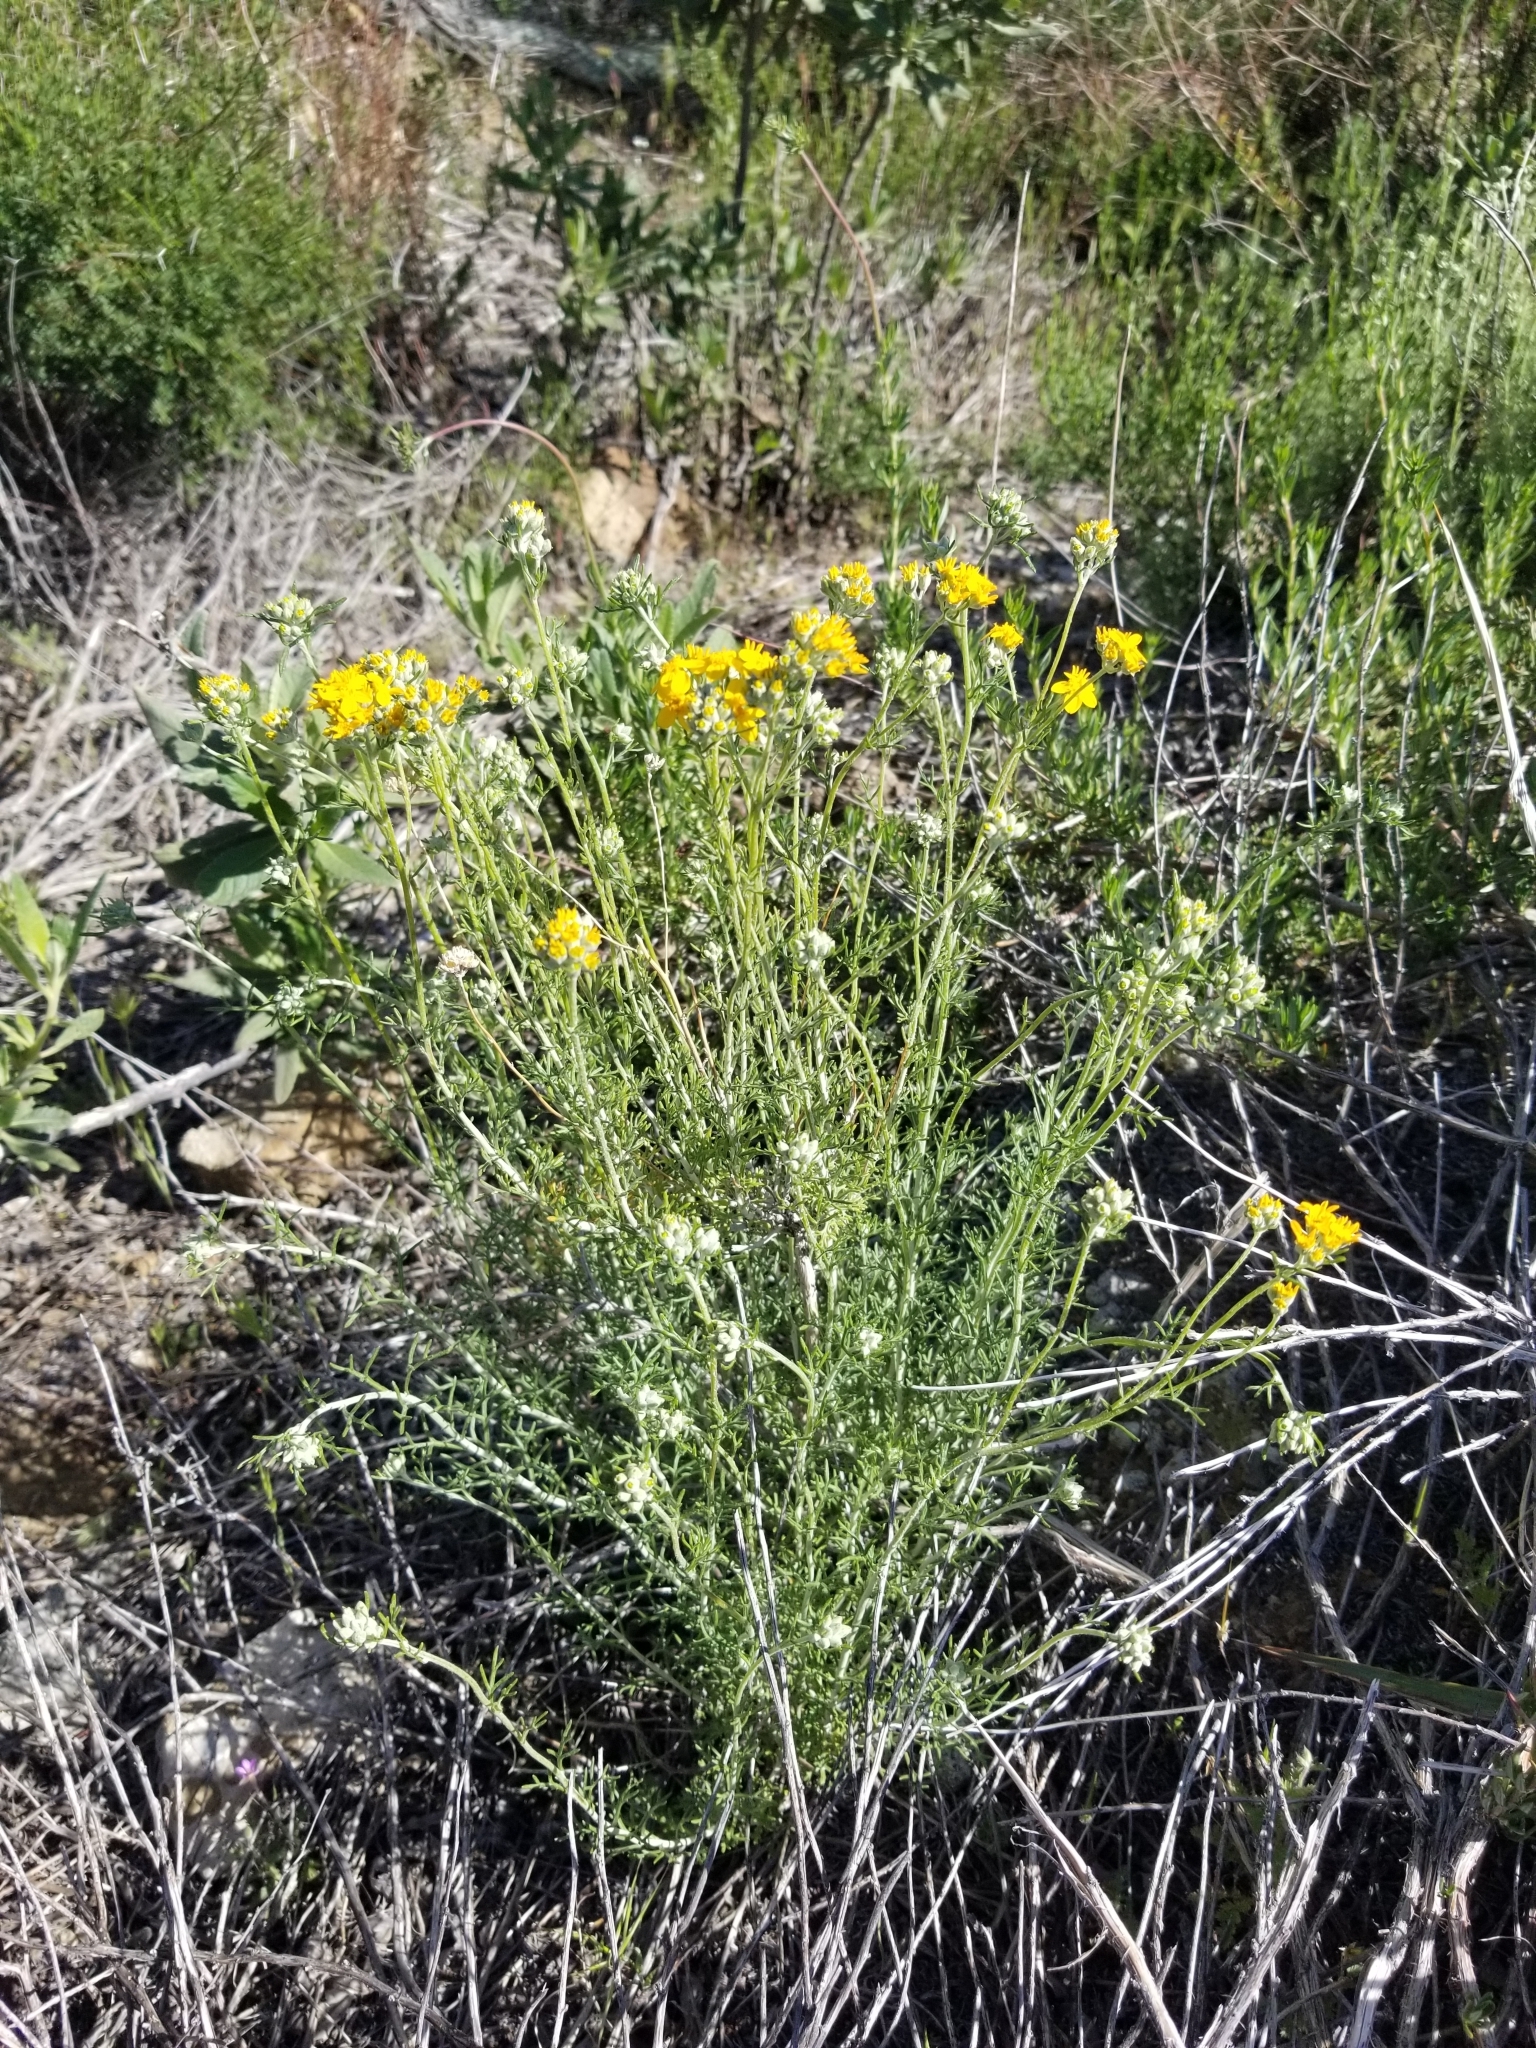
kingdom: Plantae
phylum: Tracheophyta
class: Magnoliopsida
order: Asterales
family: Asteraceae
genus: Eriophyllum
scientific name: Eriophyllum confertiflorum
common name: Golden-yarrow
